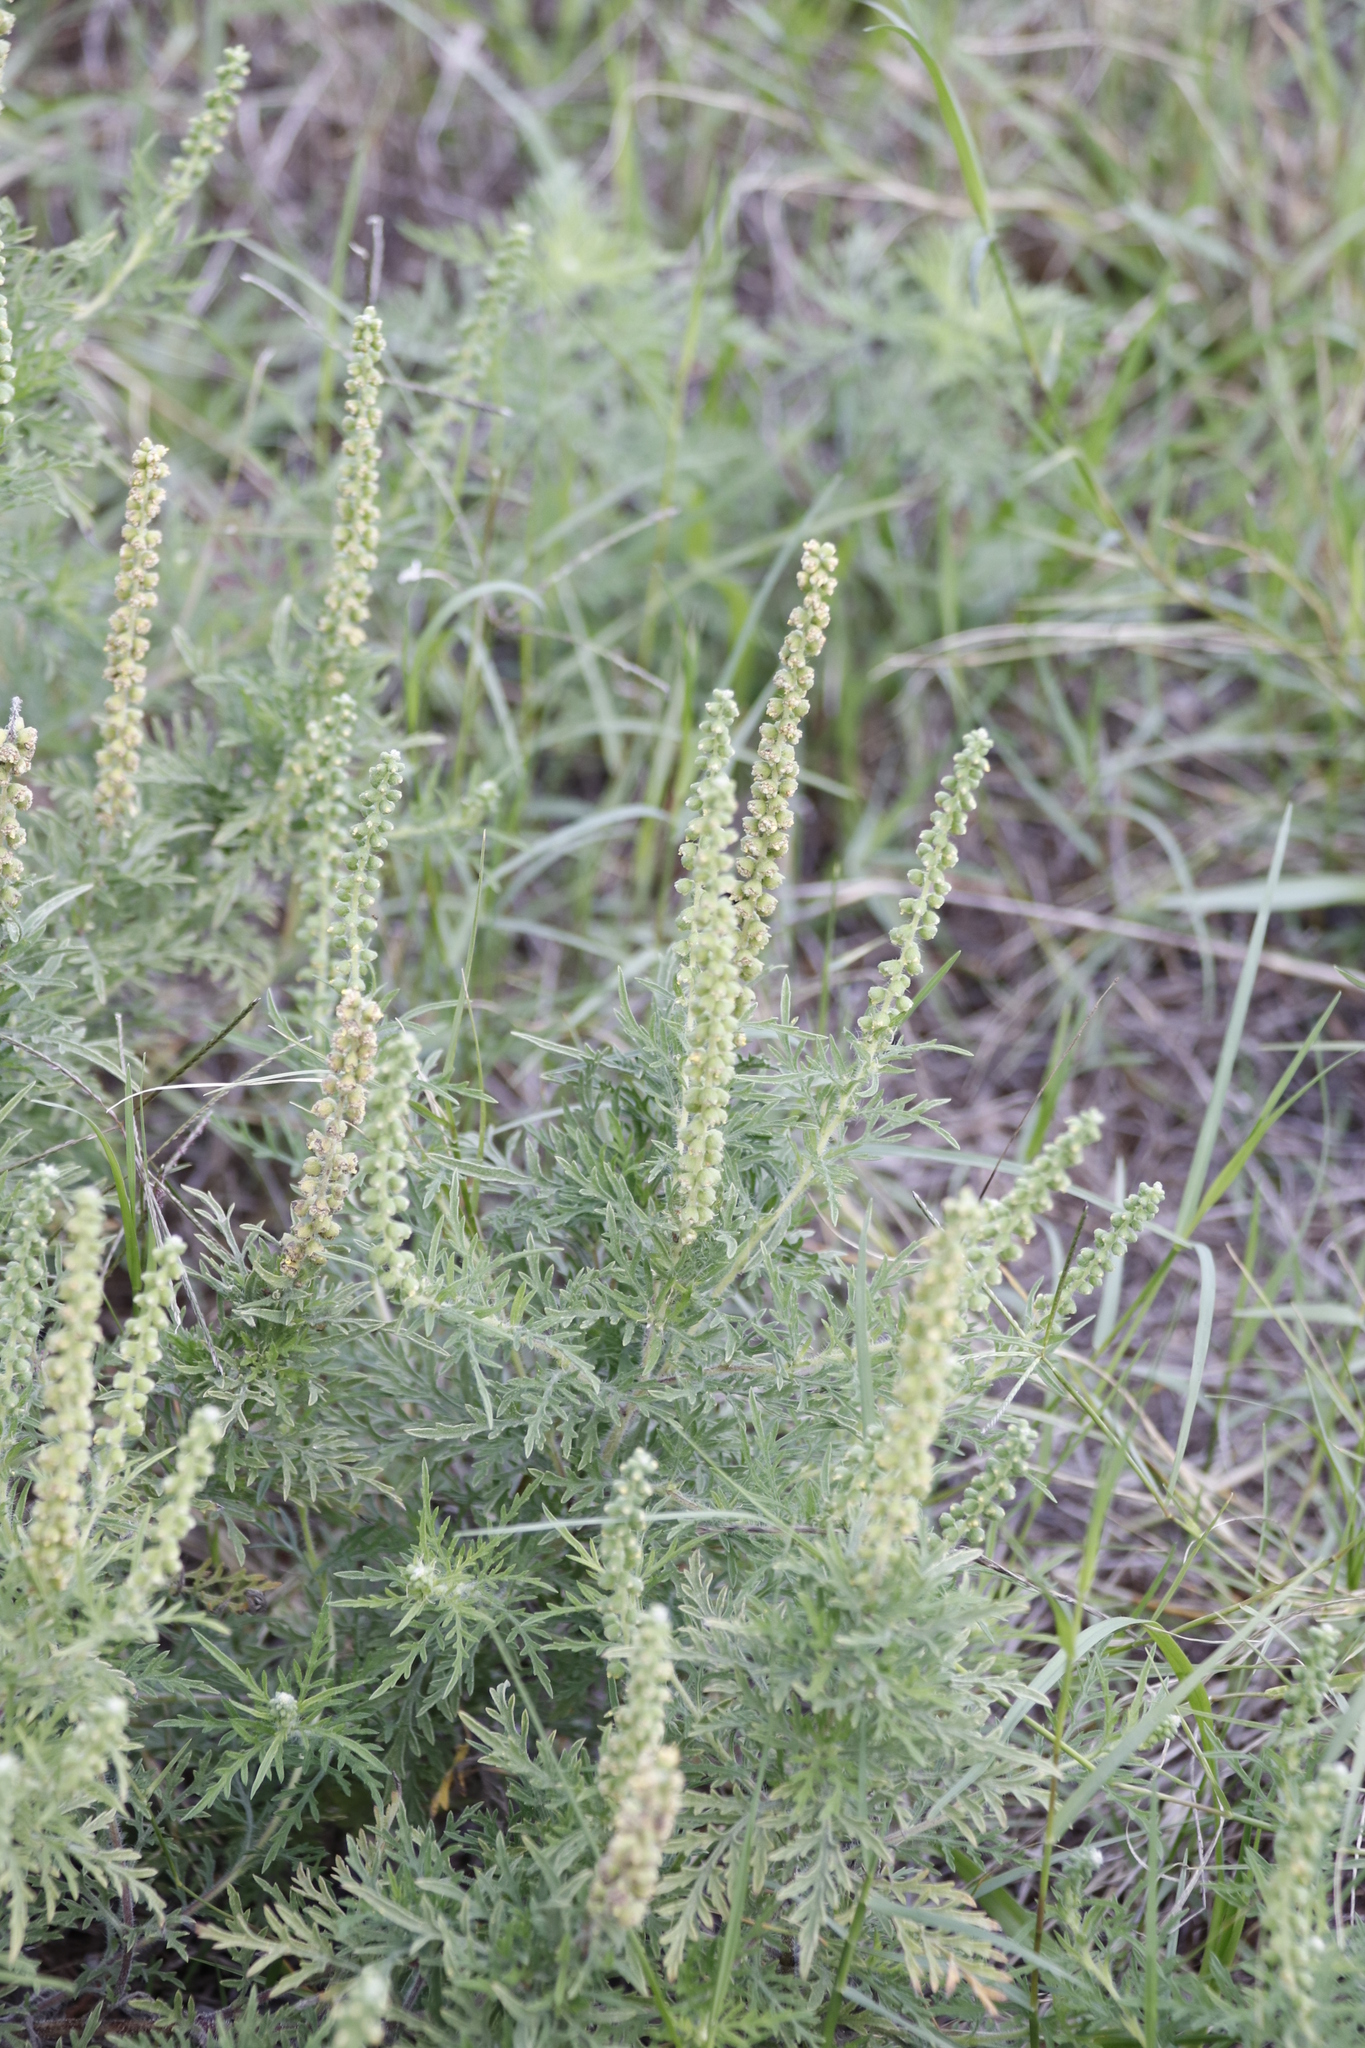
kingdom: Plantae
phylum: Tracheophyta
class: Magnoliopsida
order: Asterales
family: Asteraceae
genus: Ambrosia
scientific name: Ambrosia tenuifolia
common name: Lacy ambrosia
